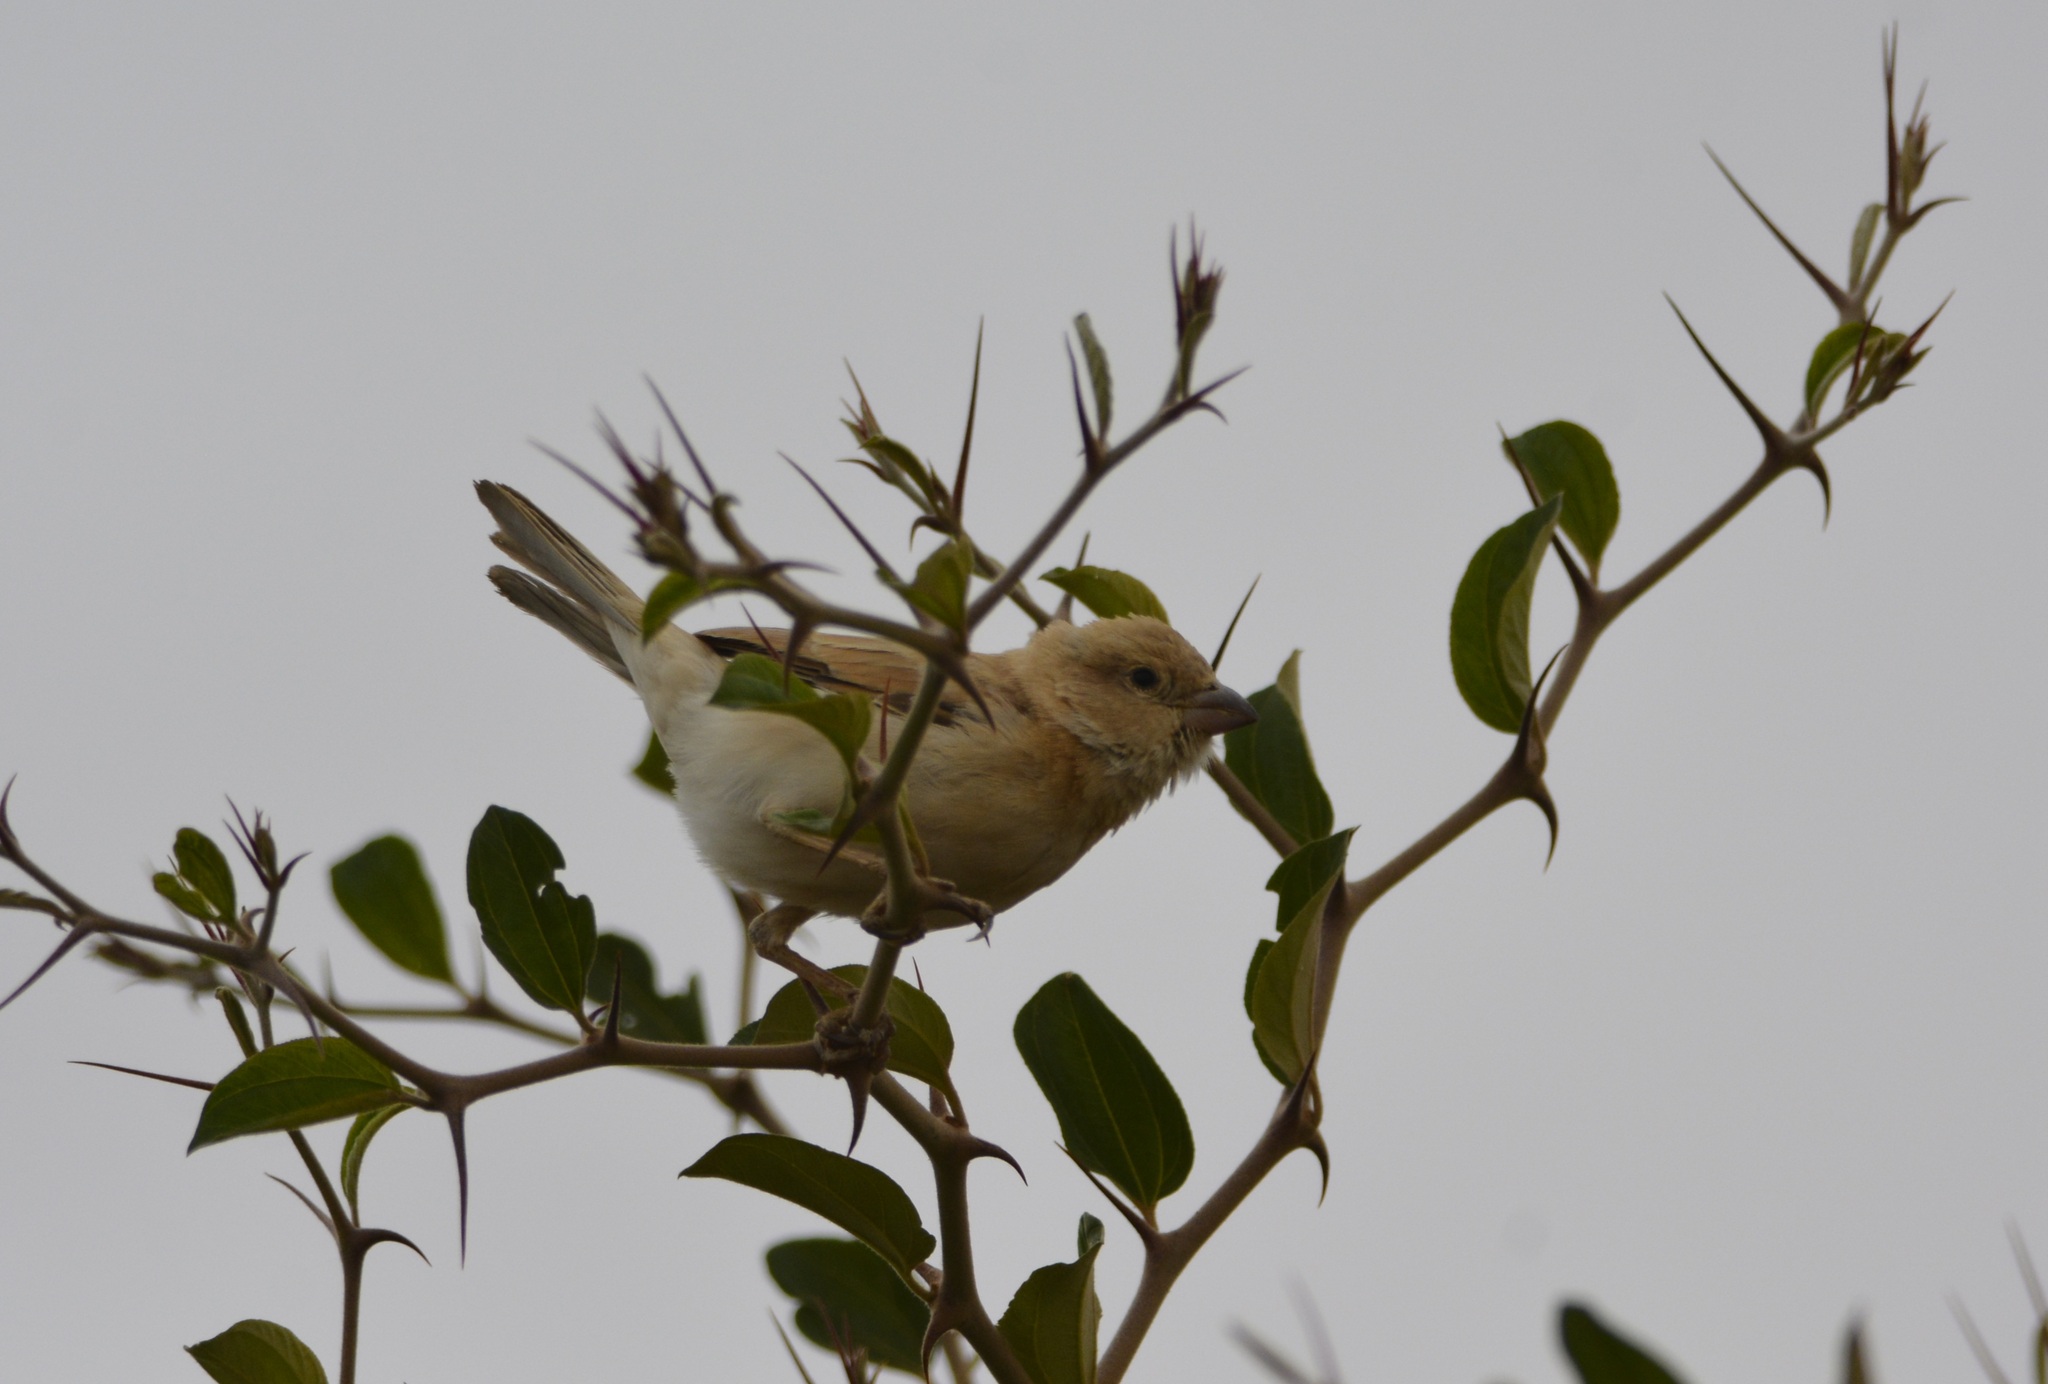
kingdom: Animalia
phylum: Chordata
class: Aves
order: Passeriformes
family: Passeridae
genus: Passer
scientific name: Passer simplex
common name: Desert sparrow
